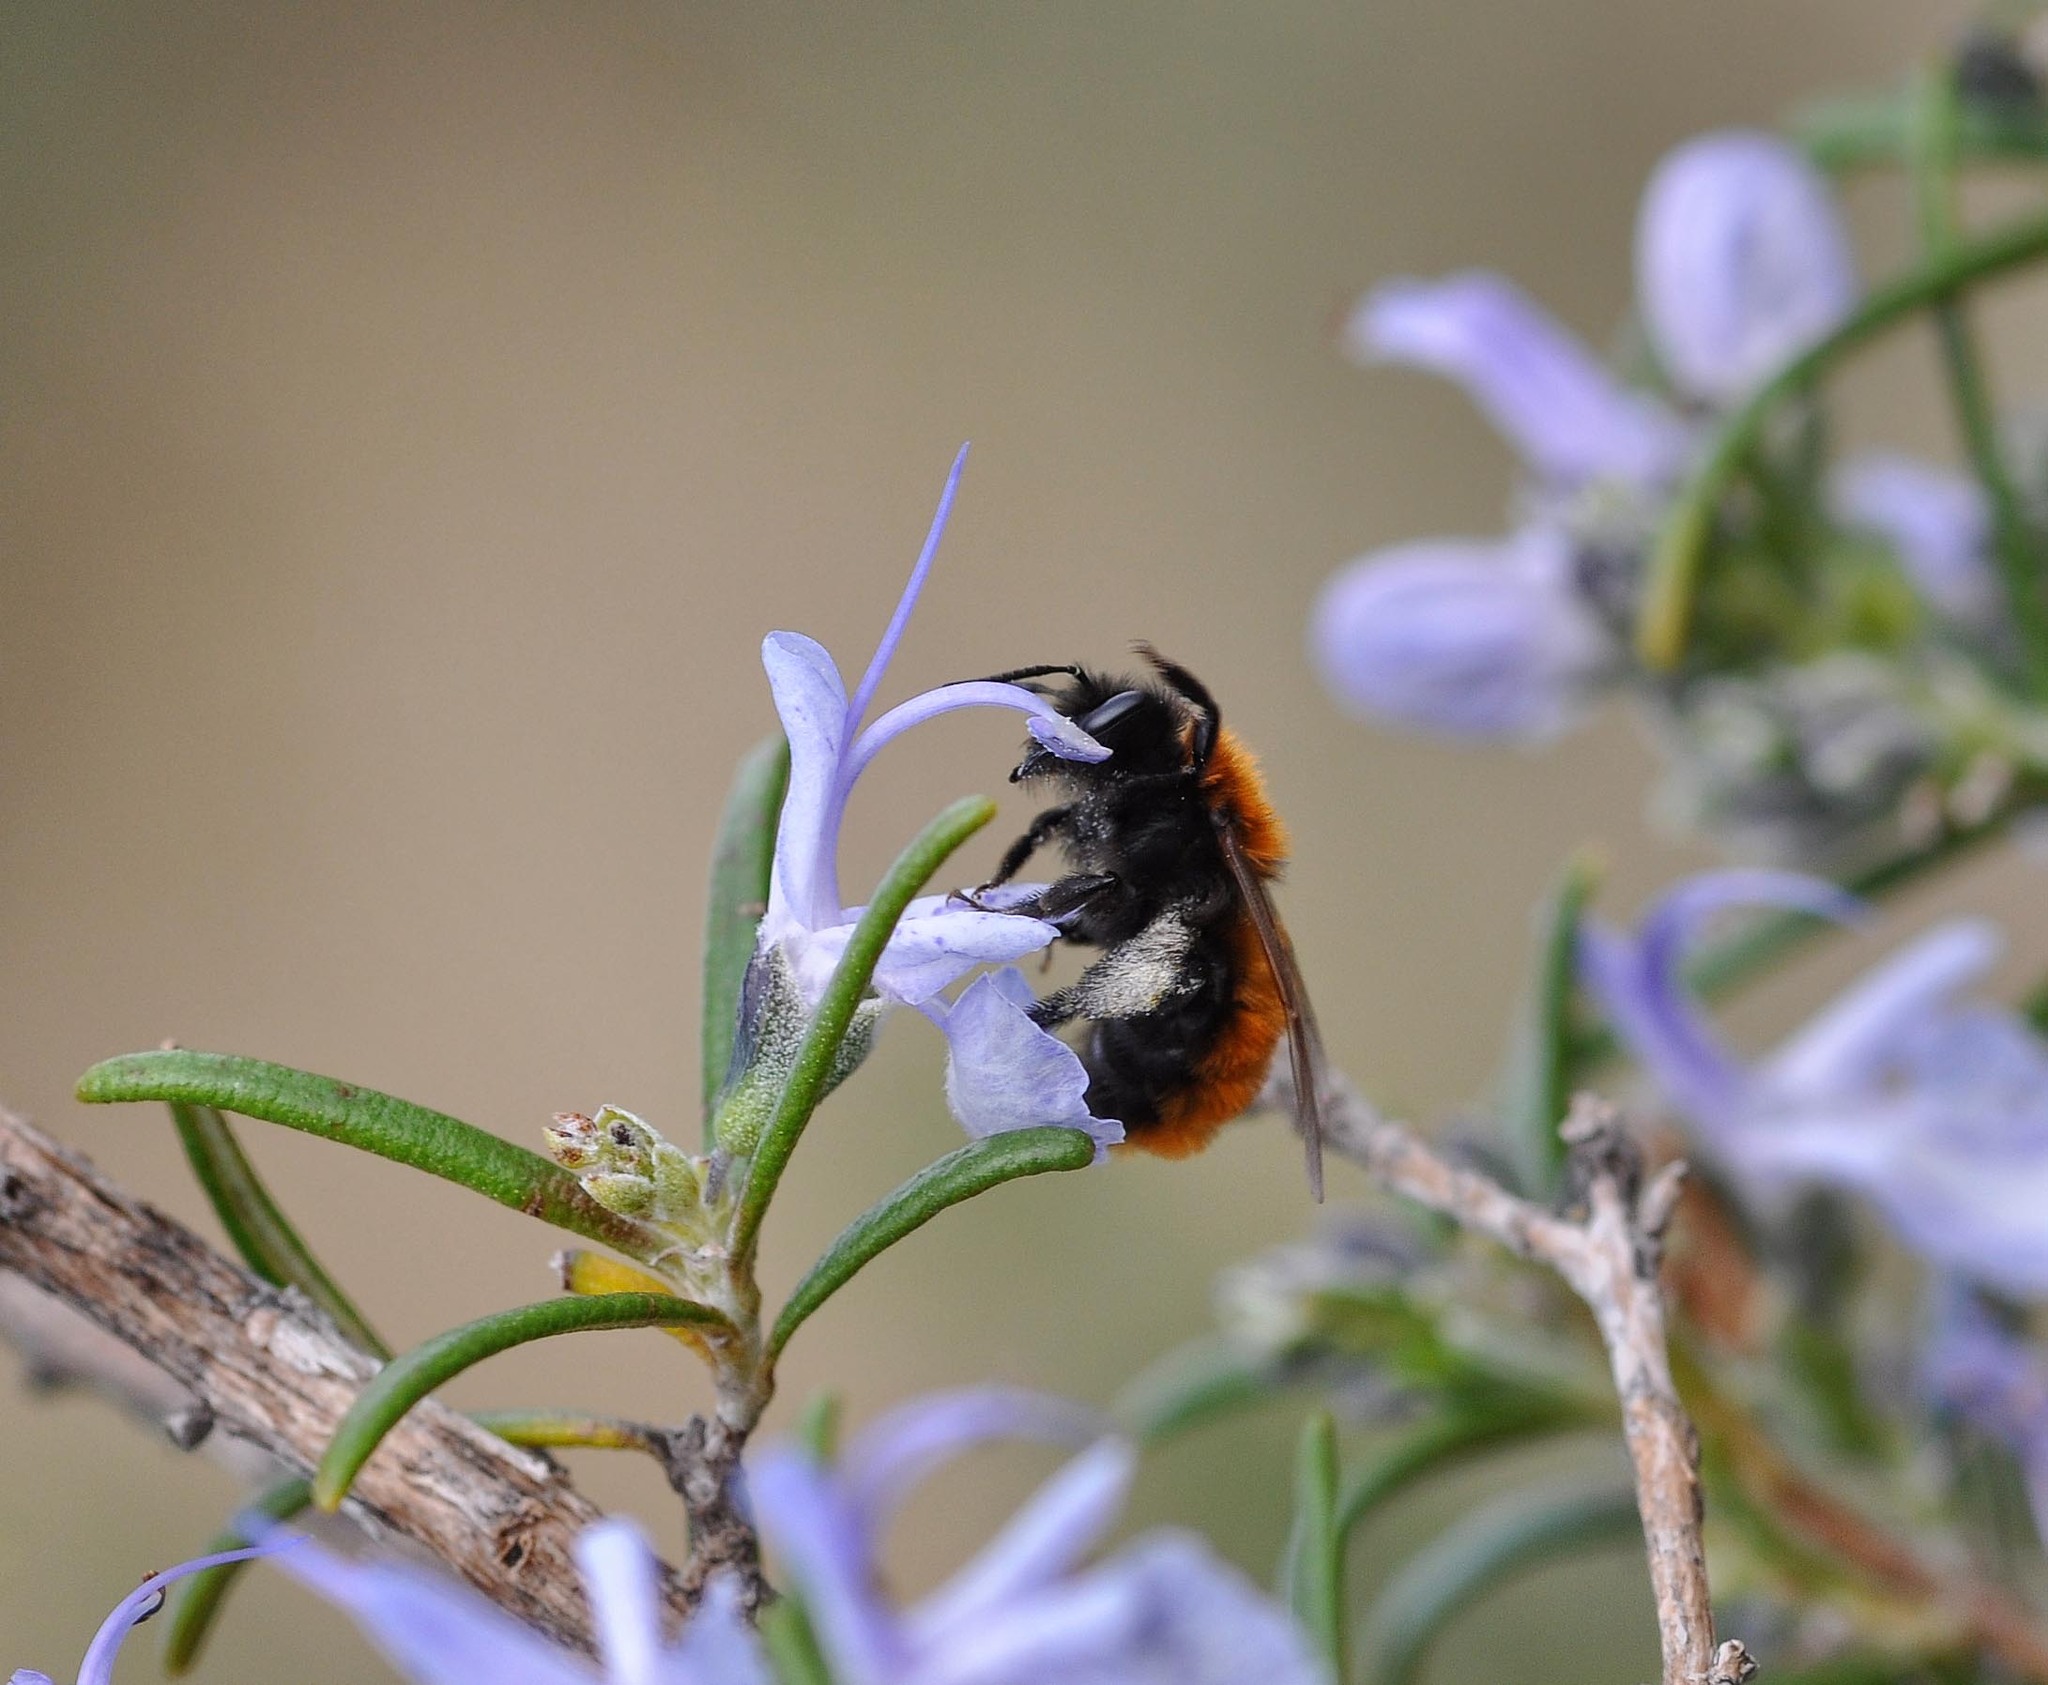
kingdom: Animalia
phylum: Arthropoda
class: Insecta
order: Hymenoptera
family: Andrenidae
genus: Andrena
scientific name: Andrena fulva
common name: Tawny mining bee
